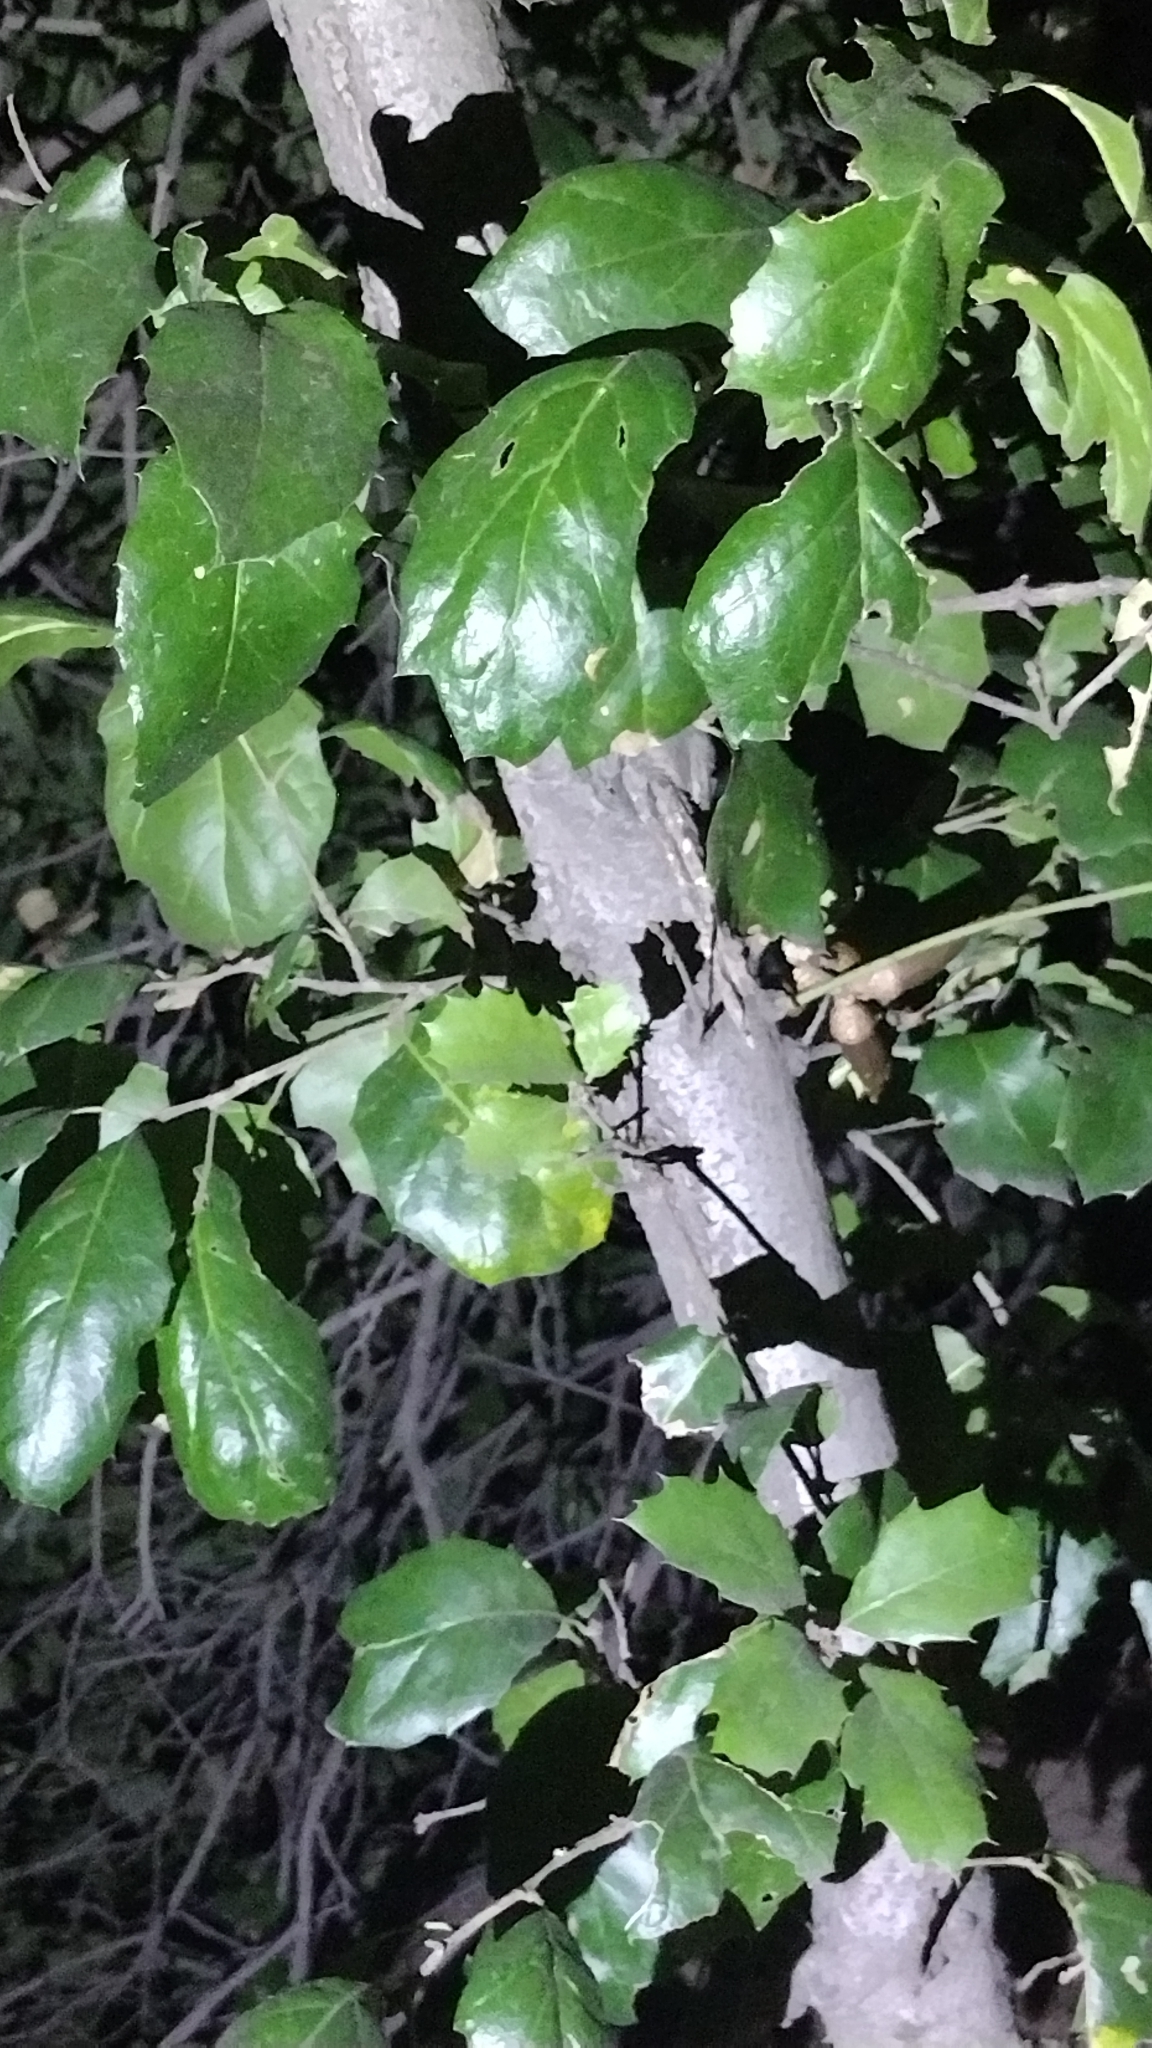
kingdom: Plantae
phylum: Tracheophyta
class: Magnoliopsida
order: Fagales
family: Fagaceae
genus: Quercus
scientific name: Quercus agrifolia
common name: California live oak
